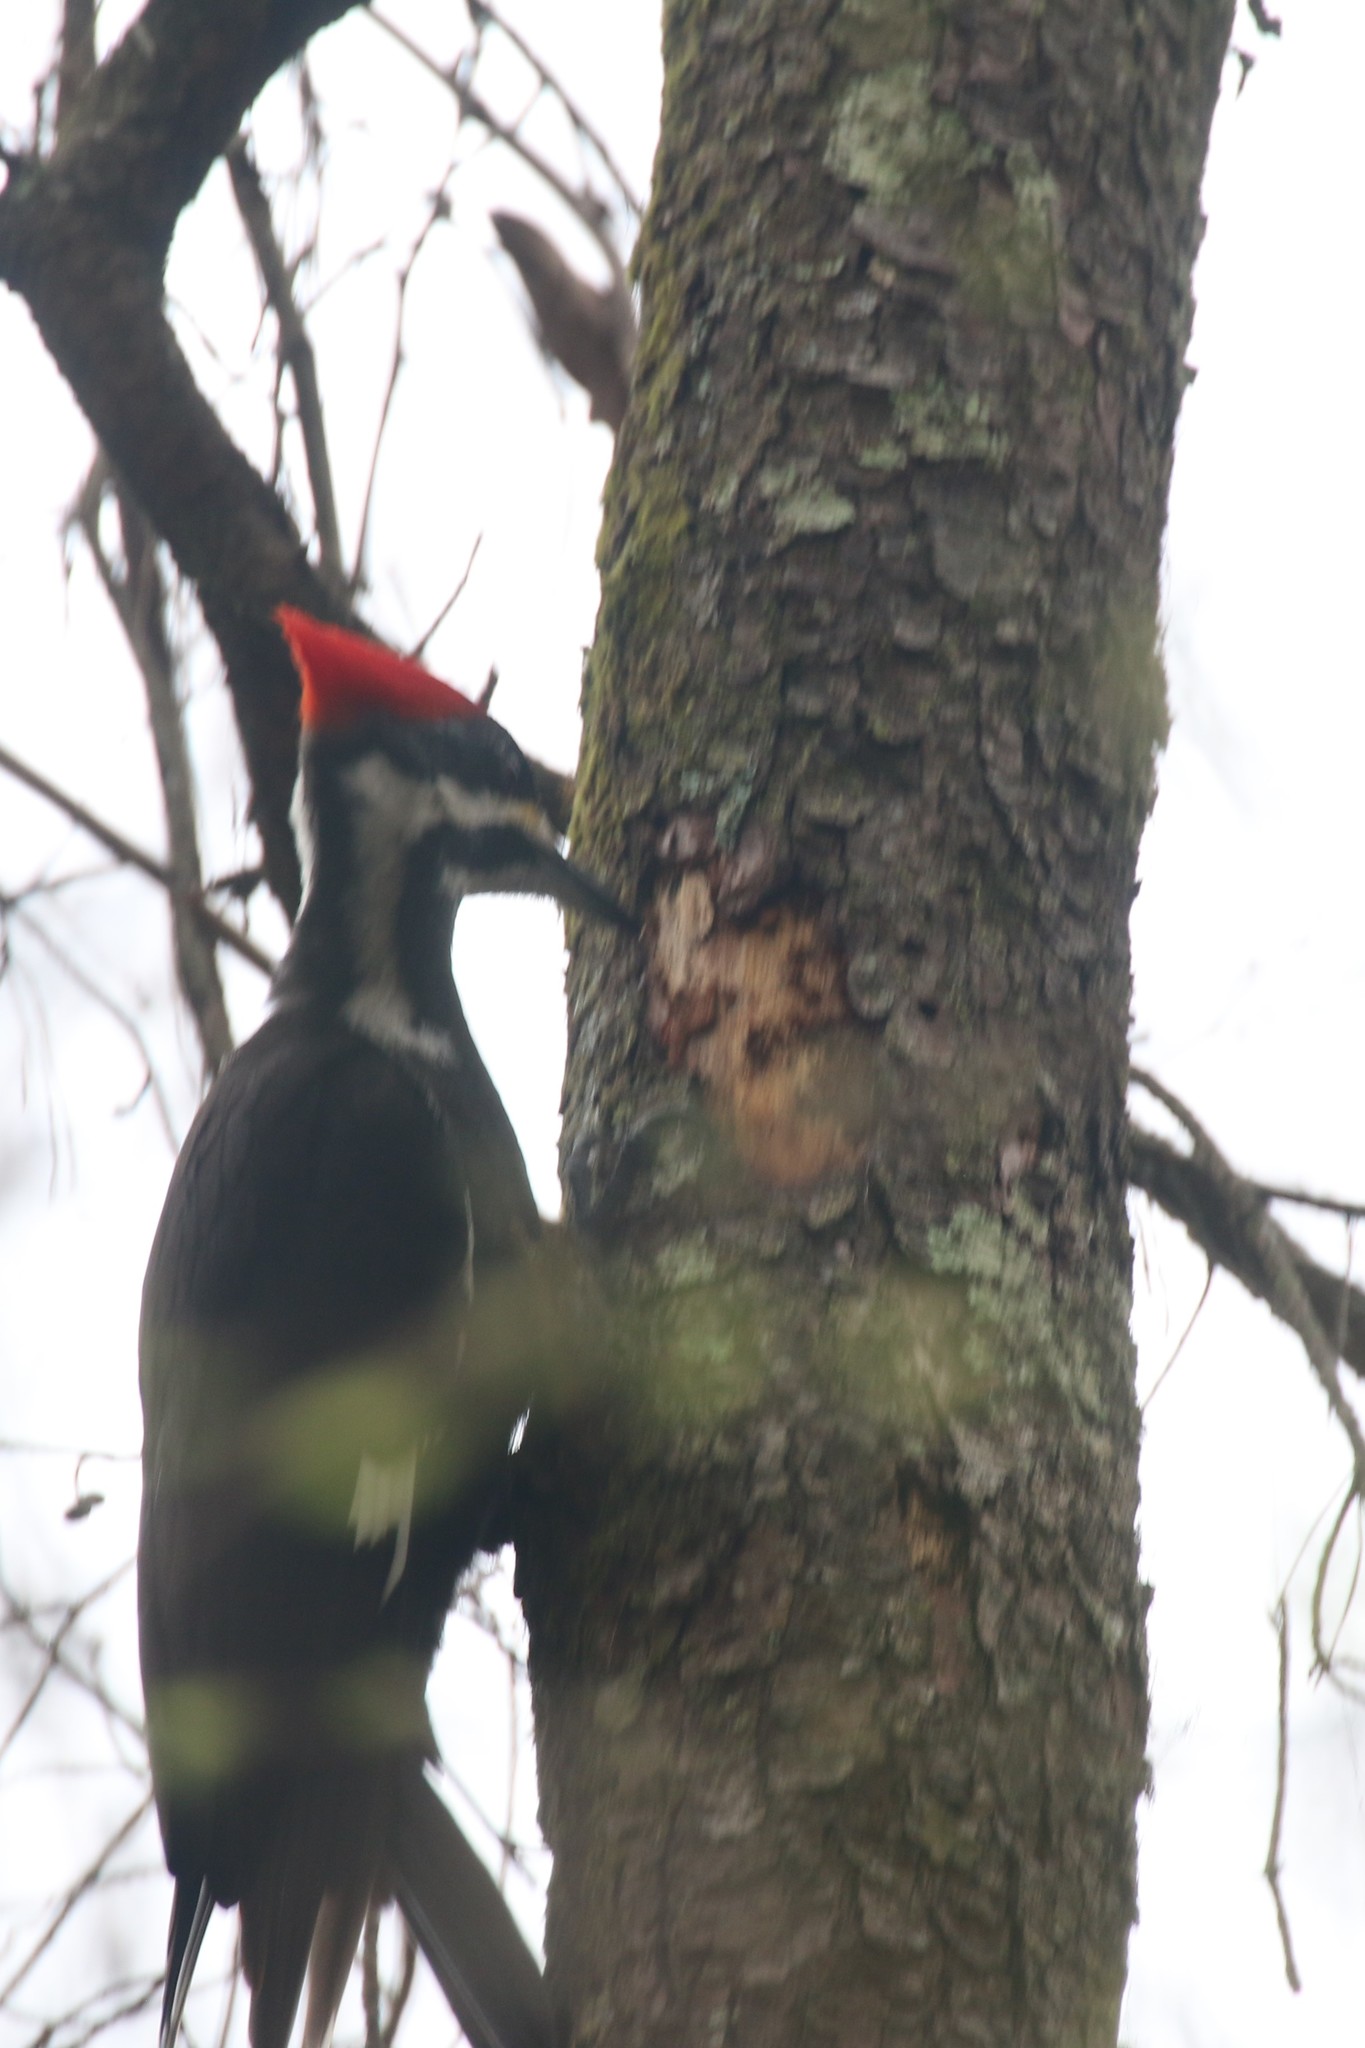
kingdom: Animalia
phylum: Chordata
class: Aves
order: Piciformes
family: Picidae
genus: Dryocopus
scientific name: Dryocopus pileatus
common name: Pileated woodpecker
